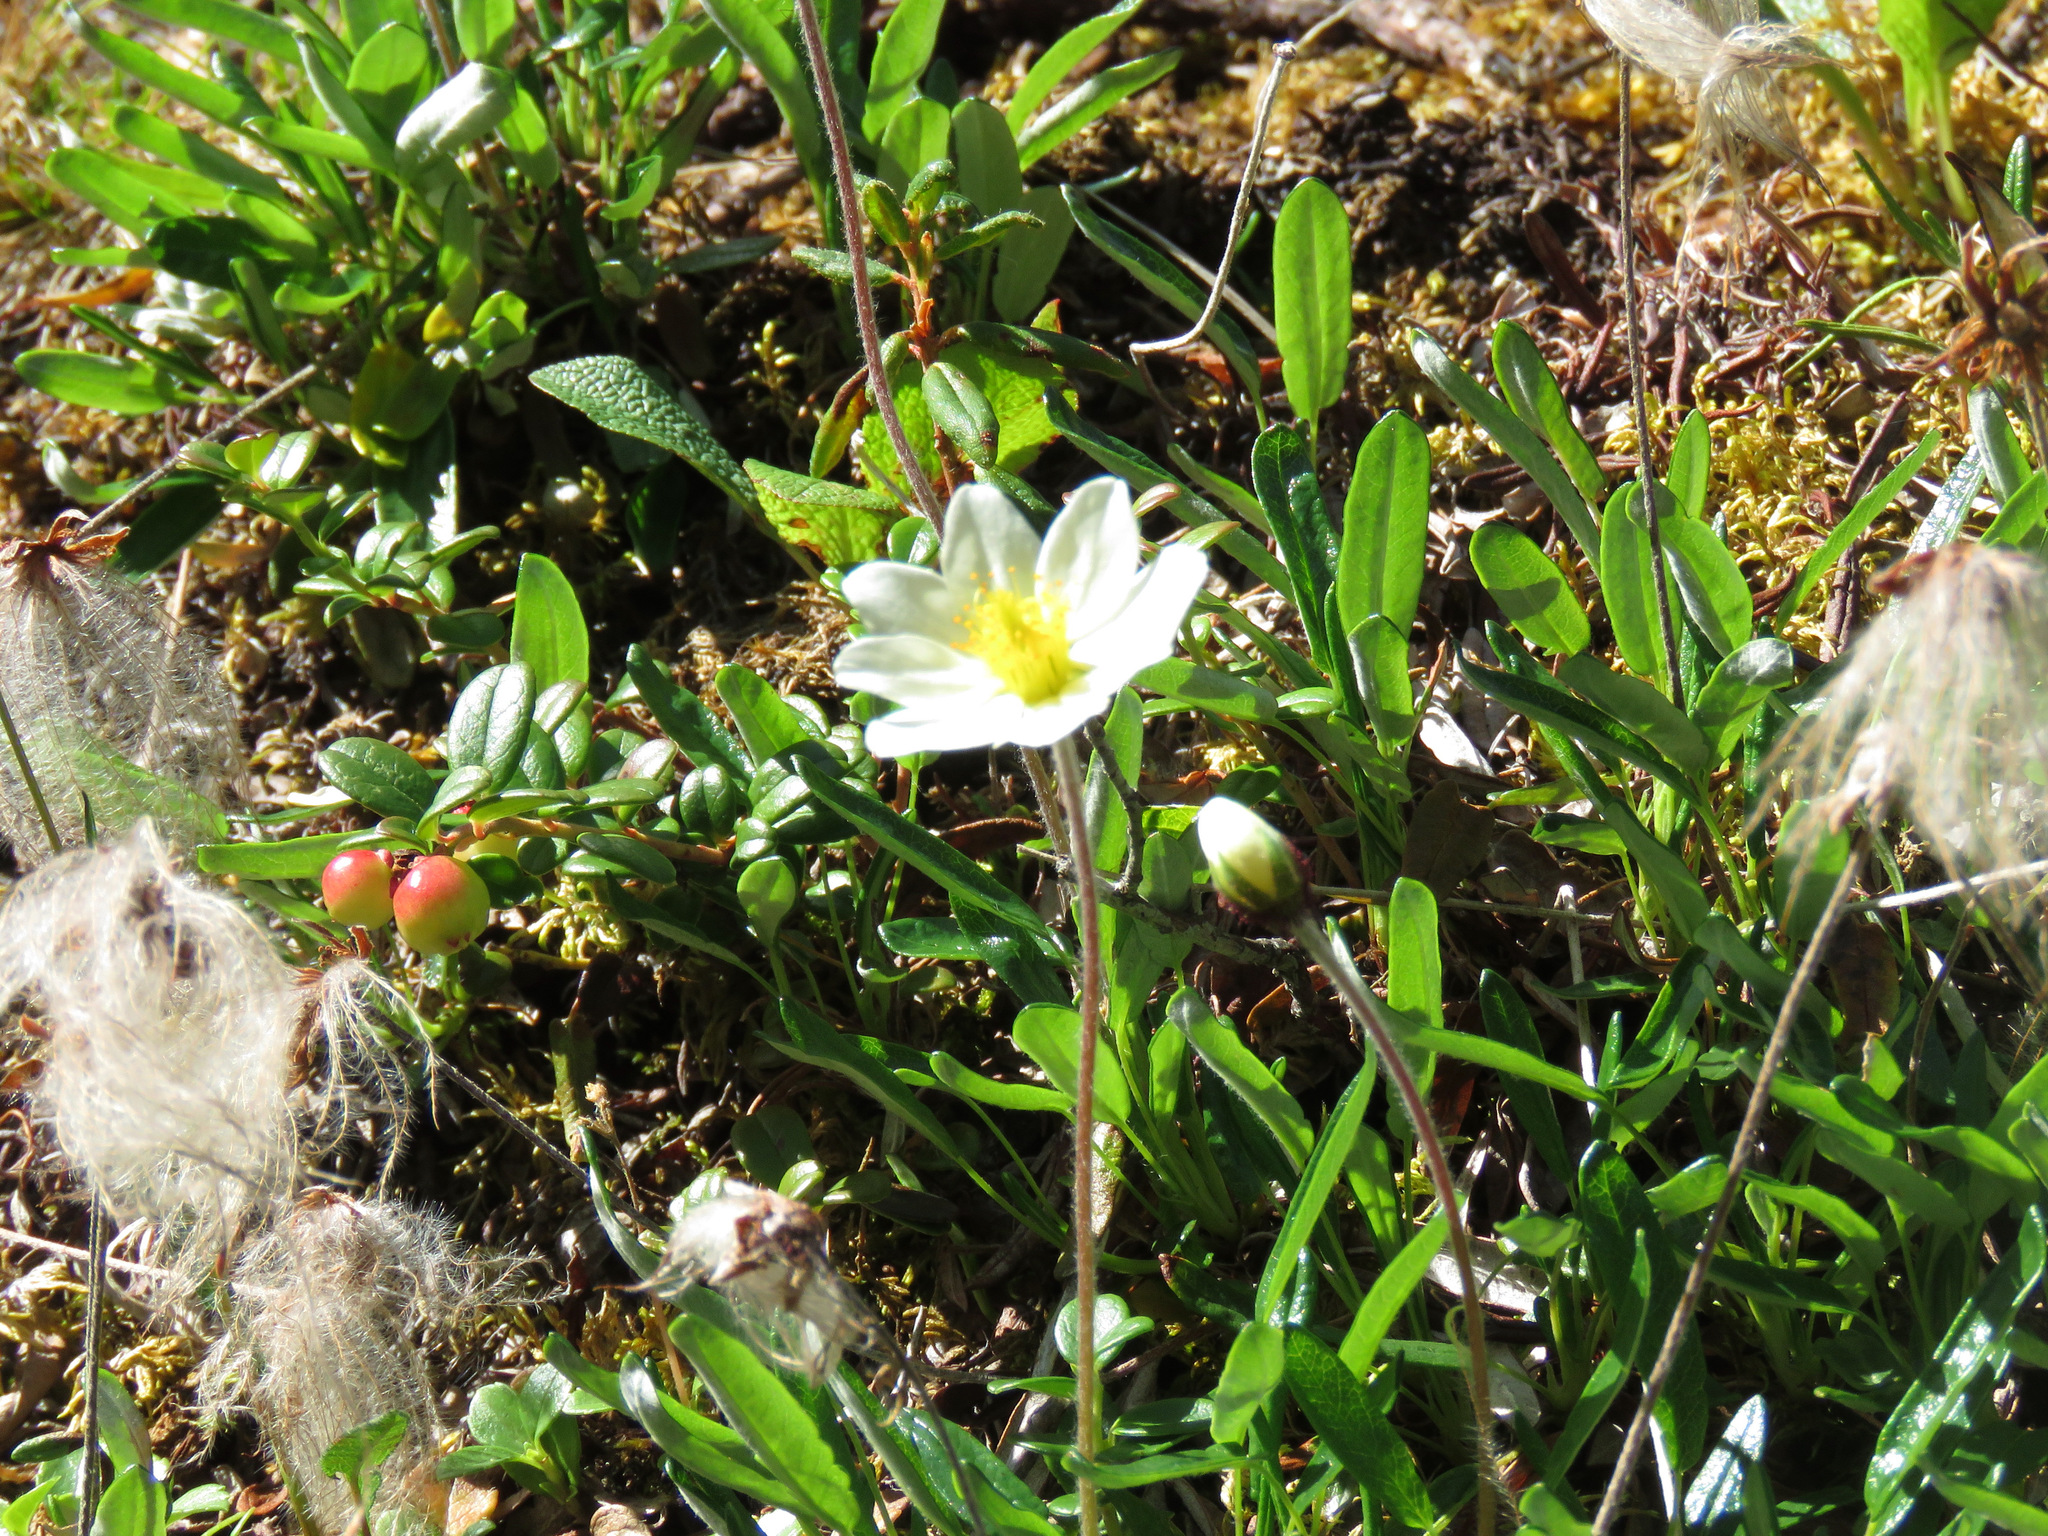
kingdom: Plantae
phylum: Tracheophyta
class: Magnoliopsida
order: Rosales
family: Rosaceae
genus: Dryas
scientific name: Dryas integrifolia
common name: Entire-leaved mountain avens
